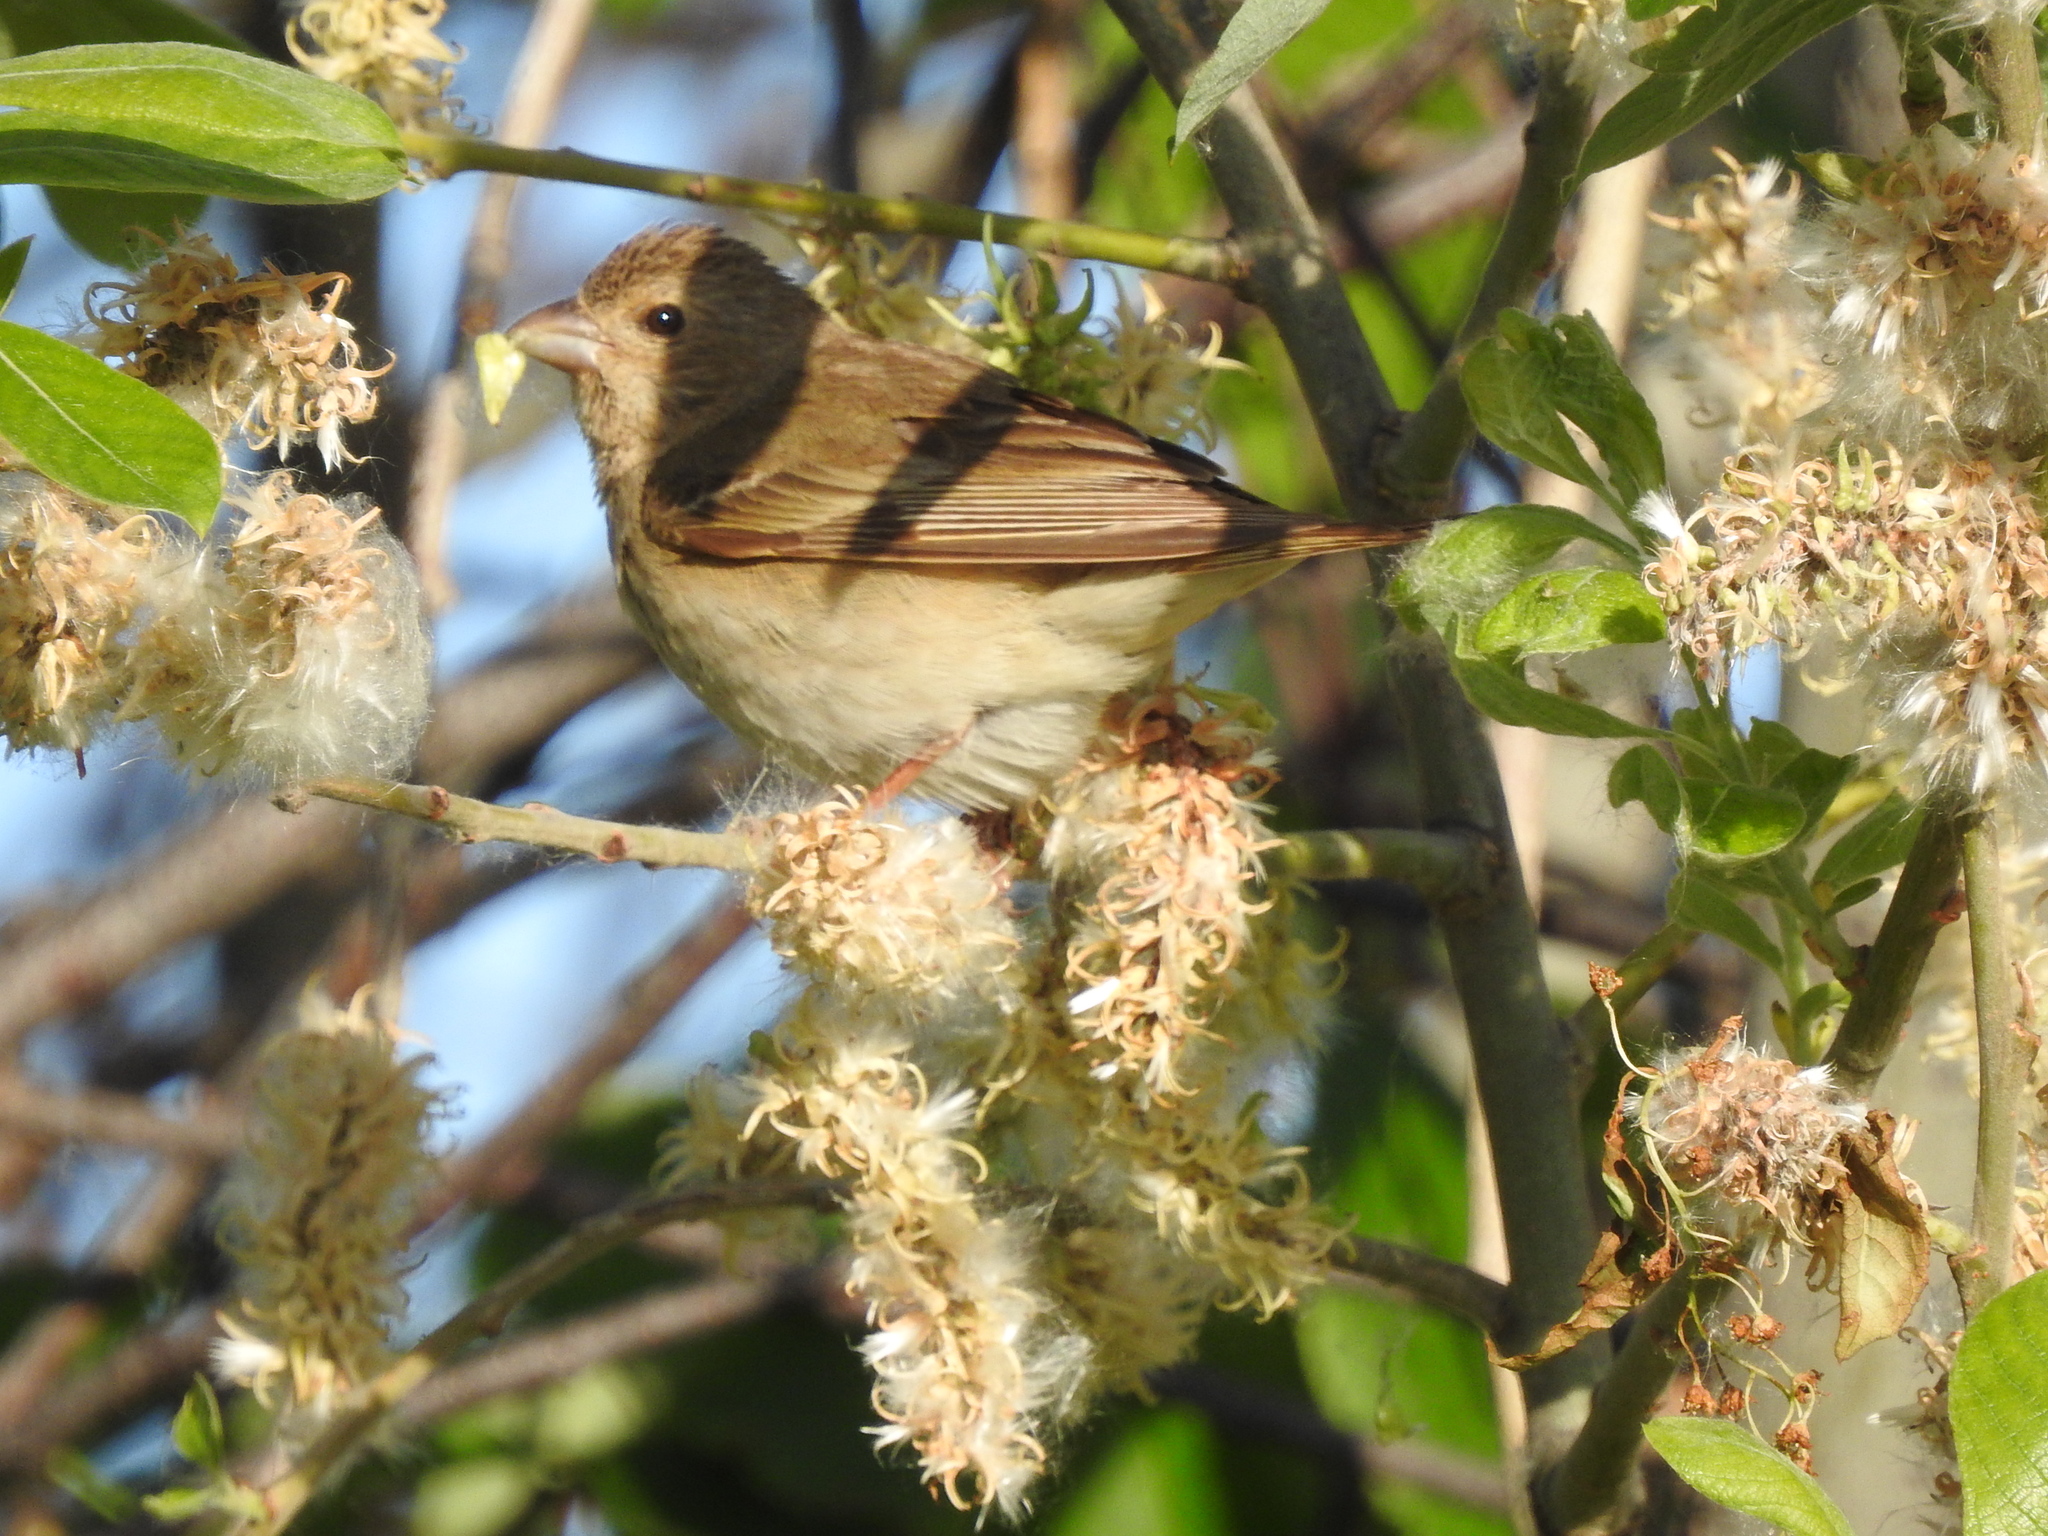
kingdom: Animalia
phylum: Chordata
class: Aves
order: Passeriformes
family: Fringillidae
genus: Carpodacus
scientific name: Carpodacus erythrinus
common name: Common rosefinch
